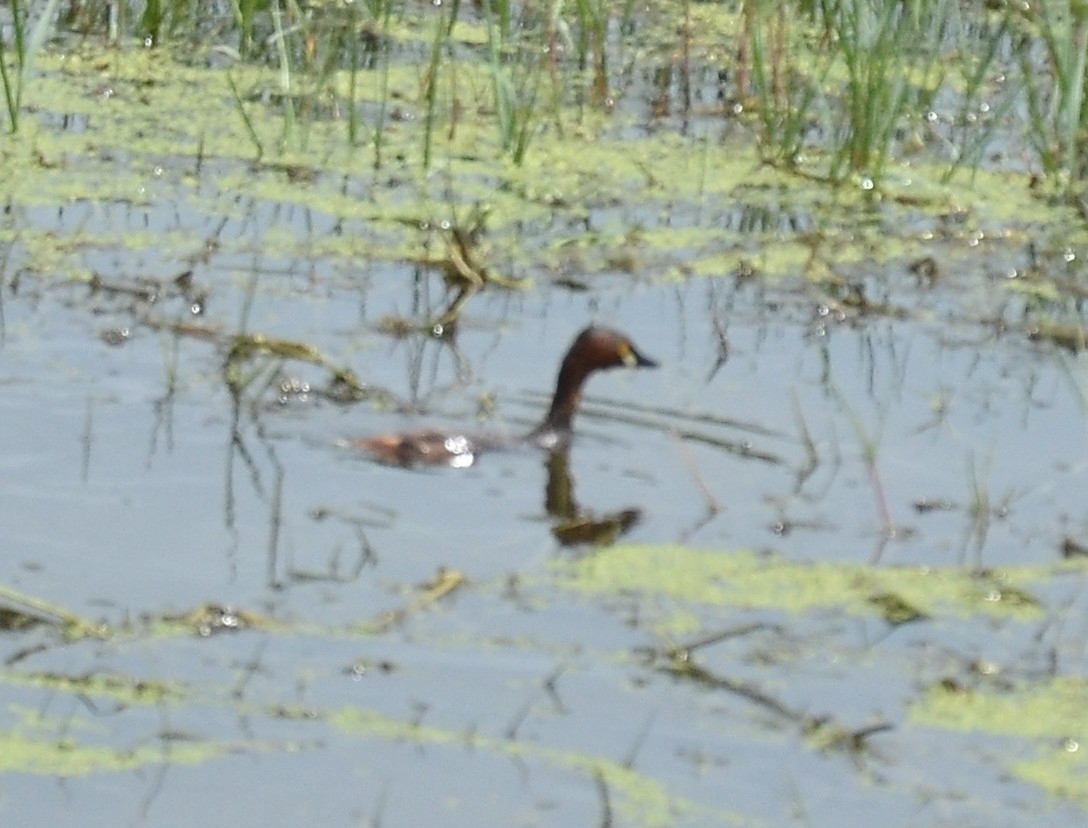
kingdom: Animalia
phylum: Chordata
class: Aves
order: Podicipediformes
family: Podicipedidae
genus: Tachybaptus
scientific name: Tachybaptus ruficollis
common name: Little grebe
